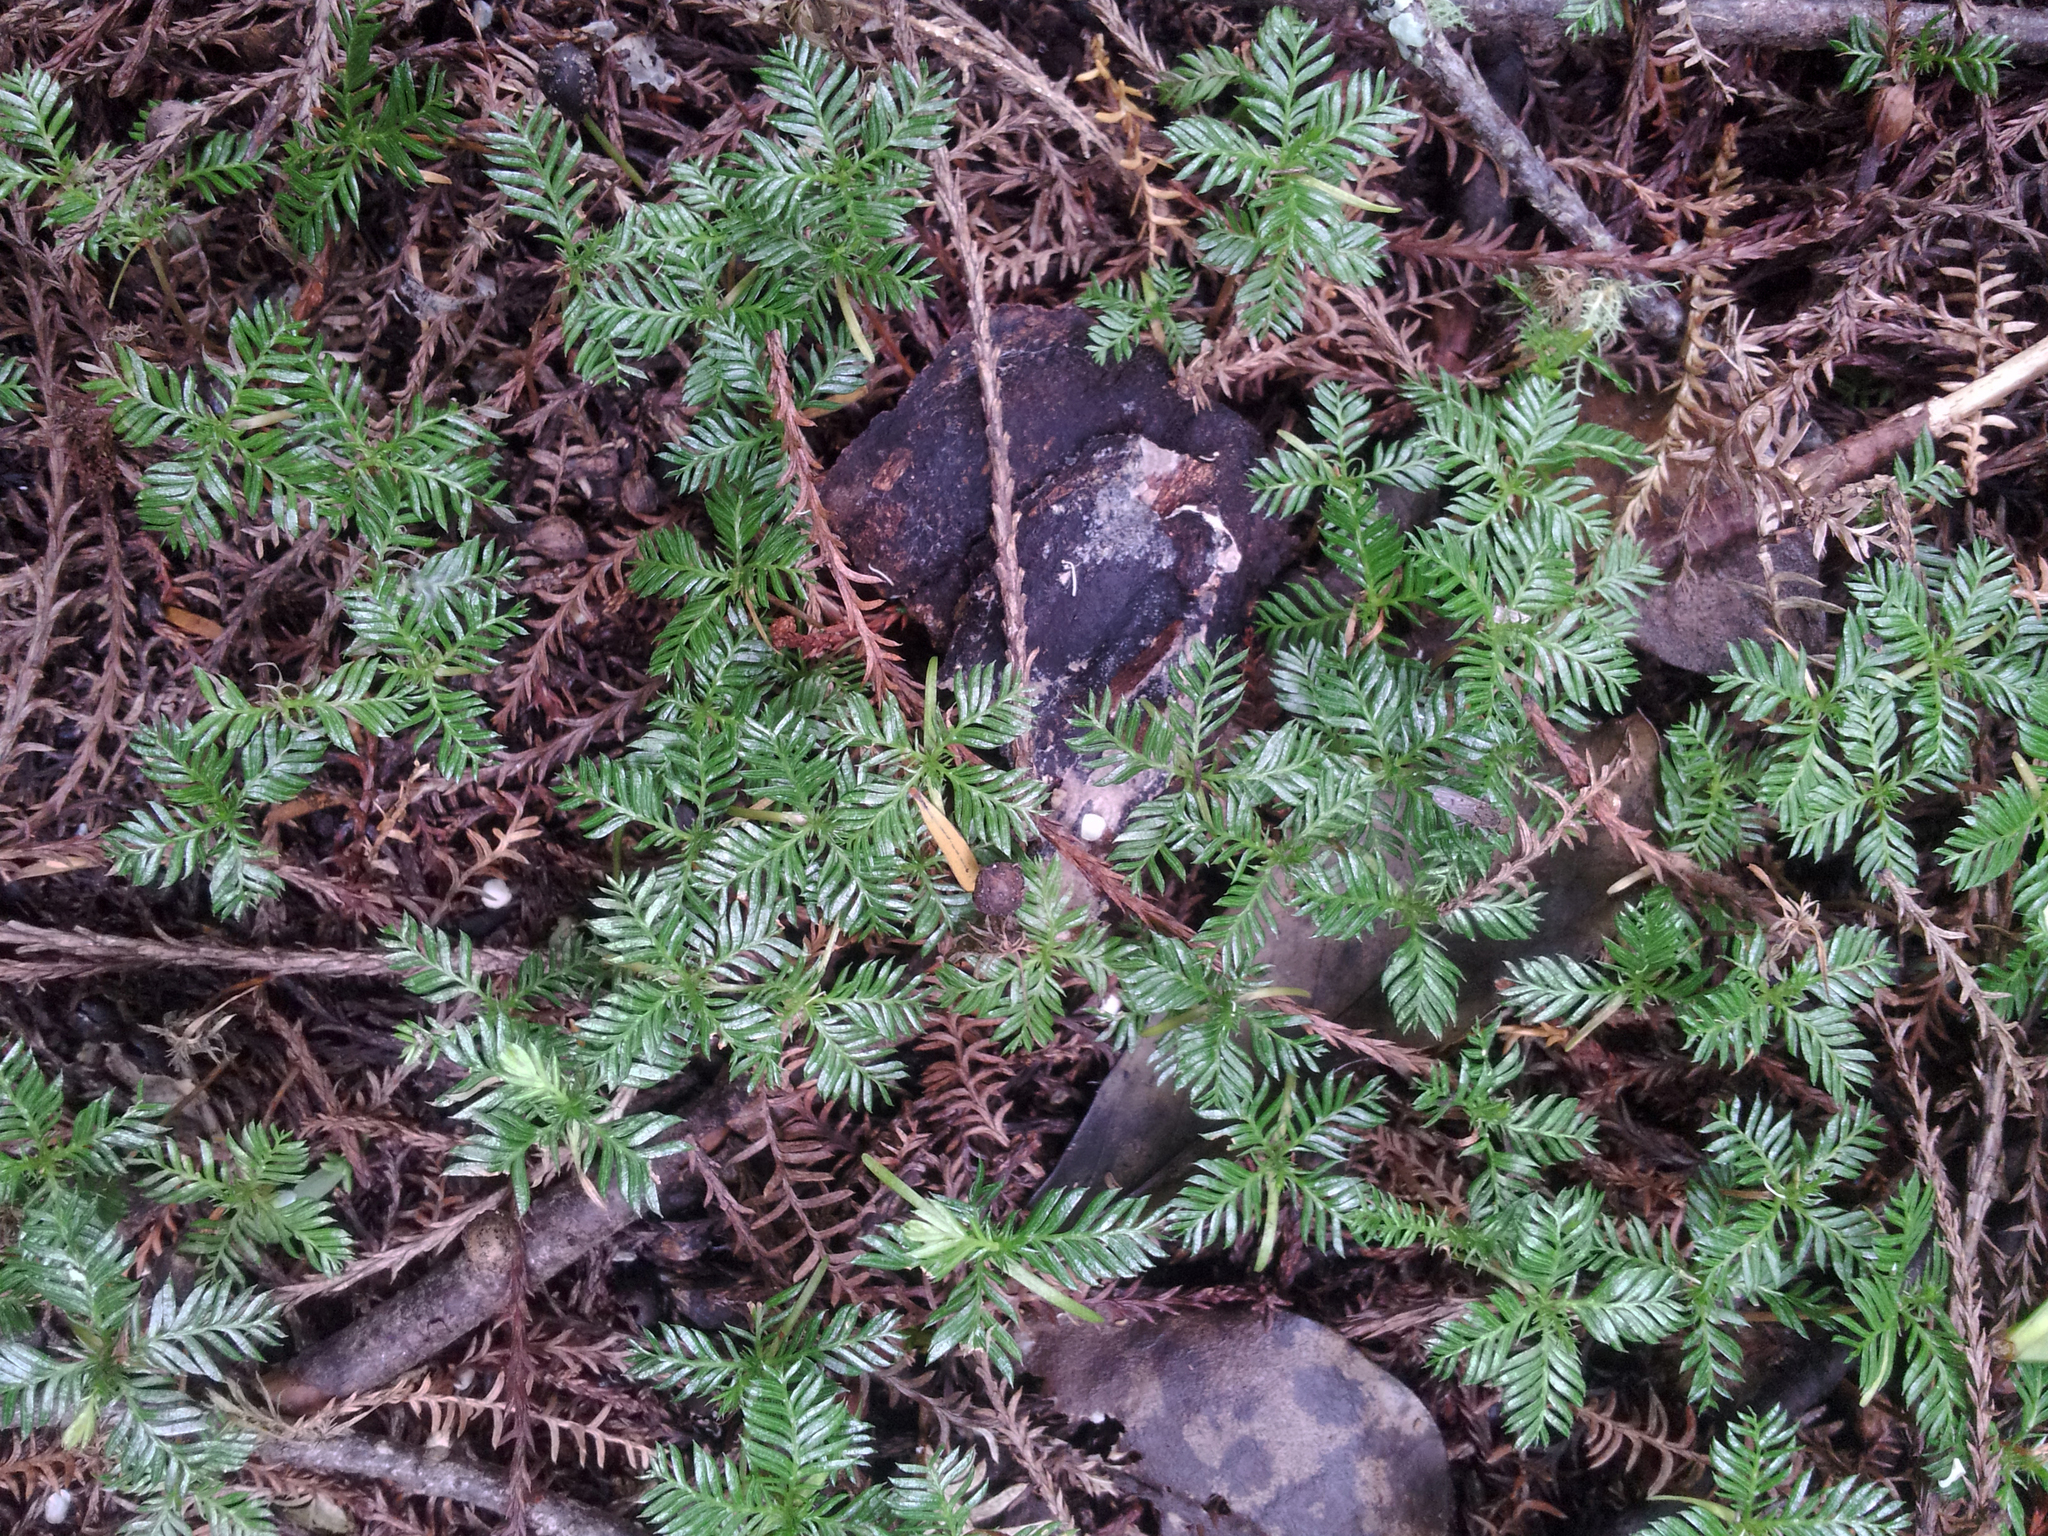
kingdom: Plantae
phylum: Tracheophyta
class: Pinopsida
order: Pinales
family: Podocarpaceae
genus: Dacrycarpus
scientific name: Dacrycarpus dacrydioides
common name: White pine
